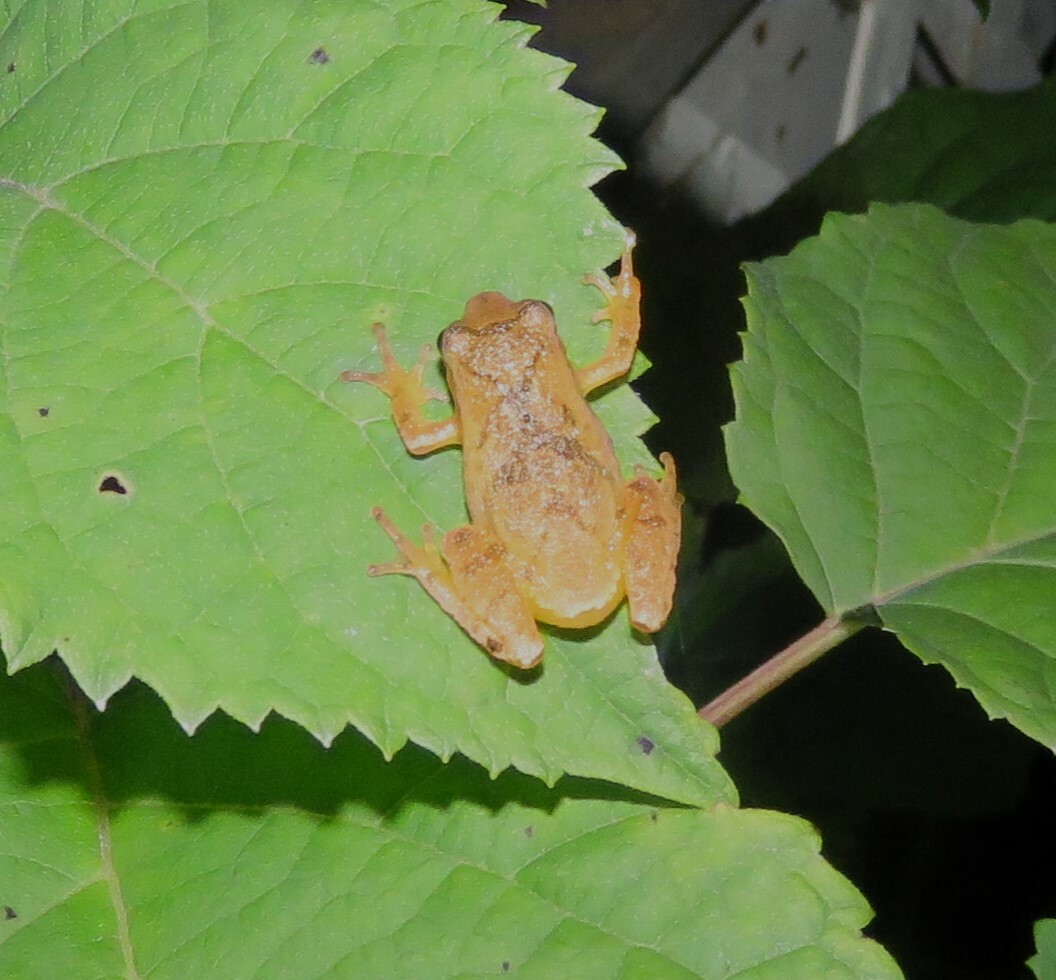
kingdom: Animalia
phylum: Chordata
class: Amphibia
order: Anura
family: Hylidae
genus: Pseudacris
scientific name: Pseudacris crucifer
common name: Spring peeper
